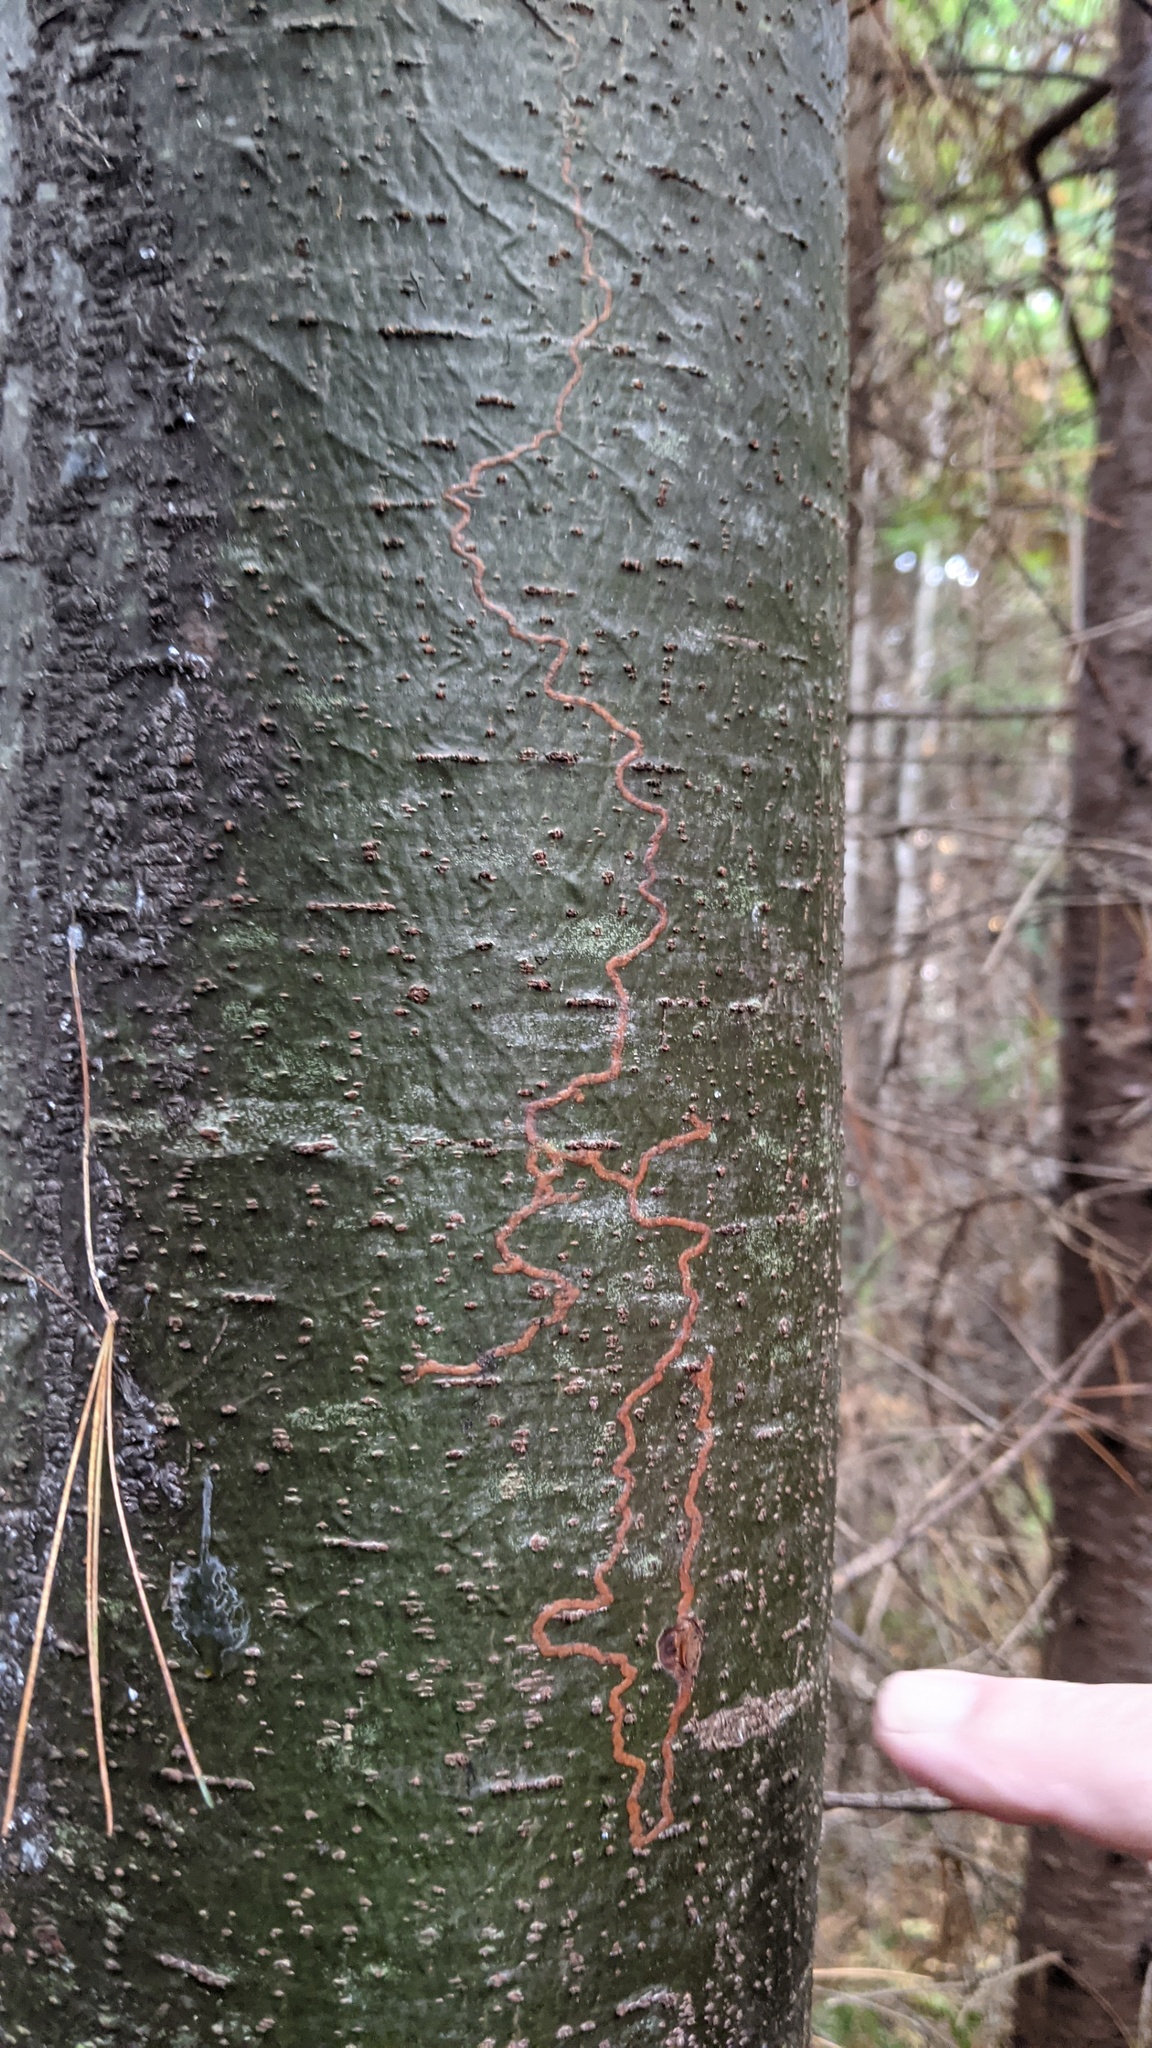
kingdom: Animalia
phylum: Arthropoda
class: Insecta
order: Lepidoptera
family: Gracillariidae
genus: Marmara
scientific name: Marmara fasciella
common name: White pine barkminer moth
